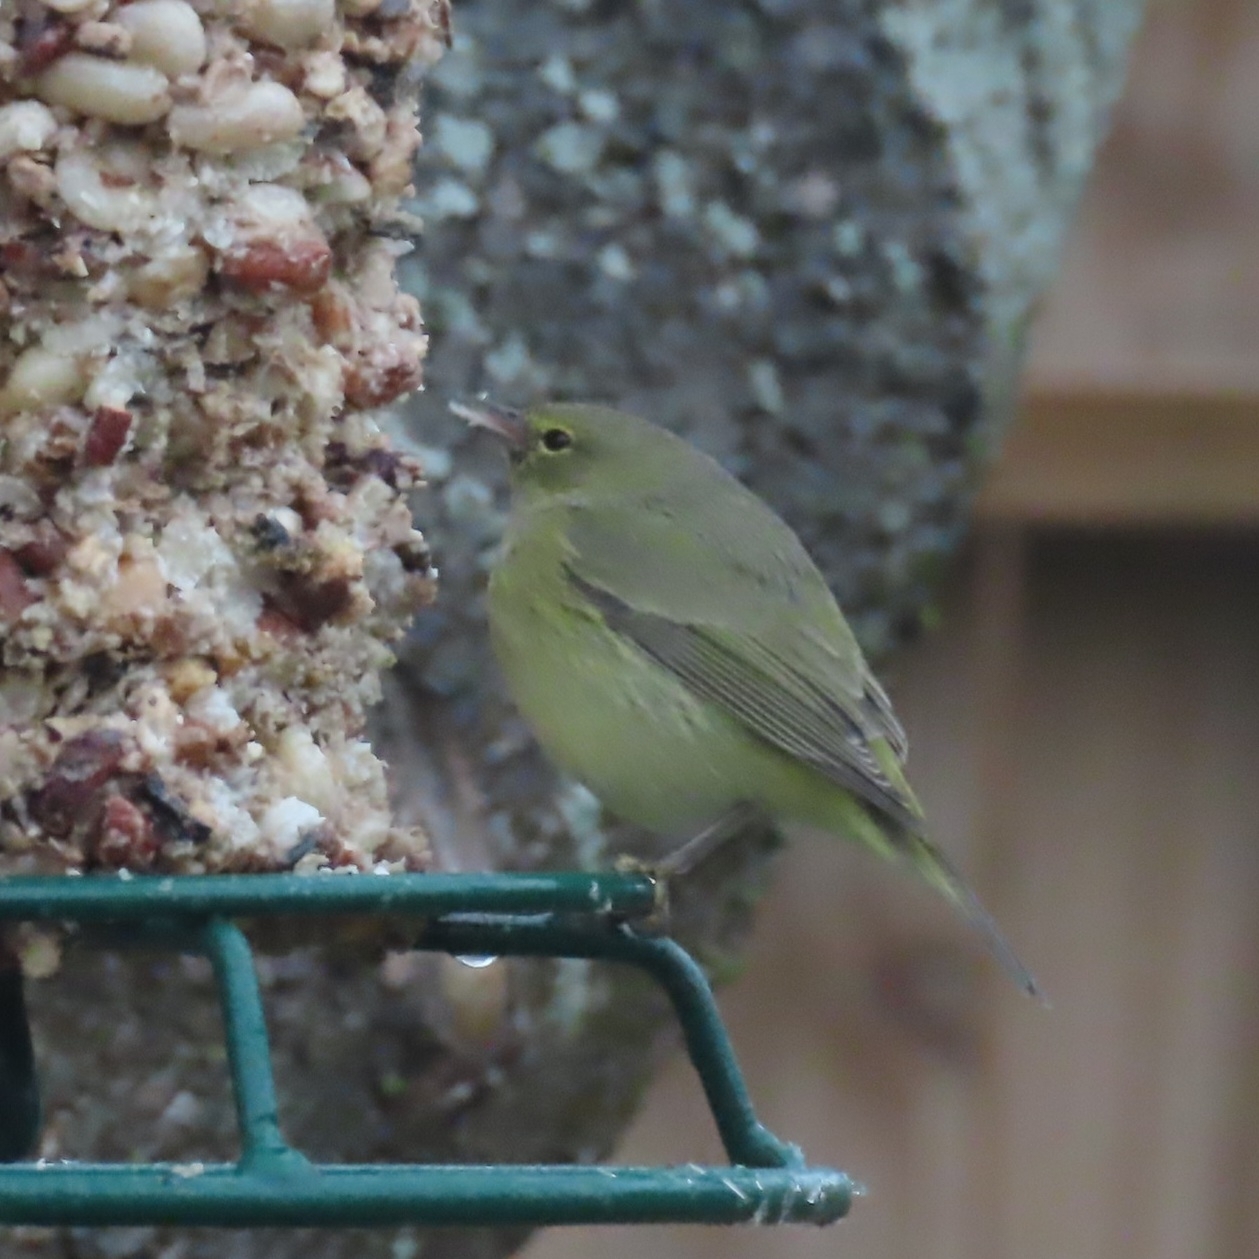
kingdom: Animalia
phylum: Chordata
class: Aves
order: Passeriformes
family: Parulidae
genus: Leiothlypis
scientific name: Leiothlypis celata
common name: Orange-crowned warbler
